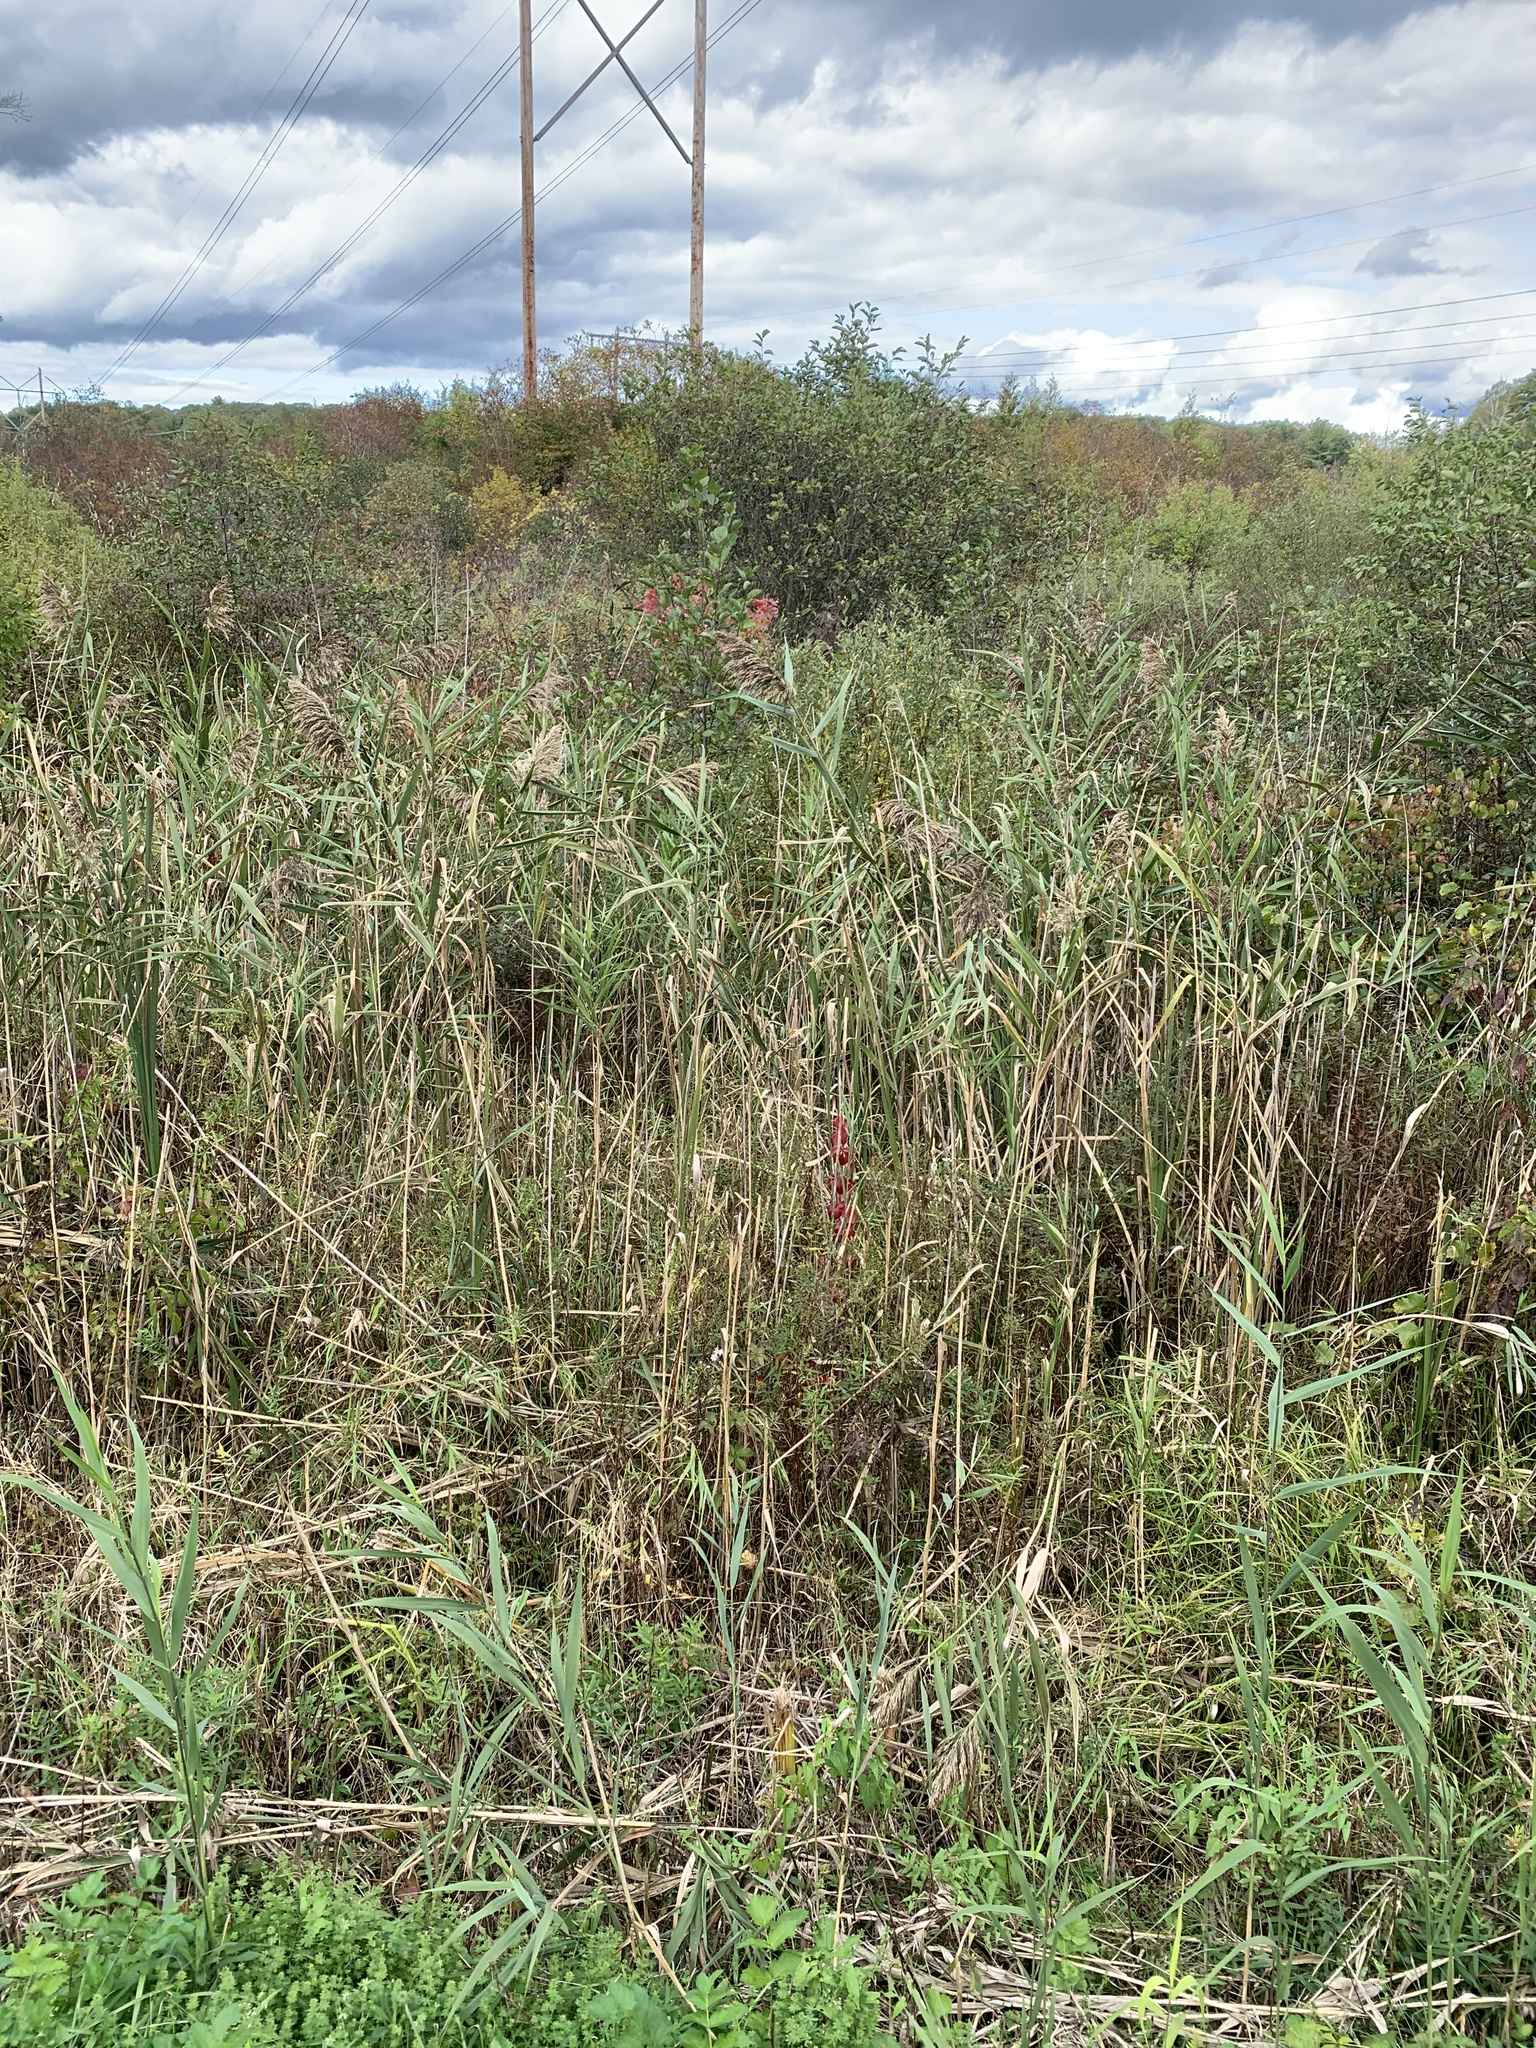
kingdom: Plantae
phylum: Tracheophyta
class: Liliopsida
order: Poales
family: Poaceae
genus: Phragmites
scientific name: Phragmites australis
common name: Common reed
